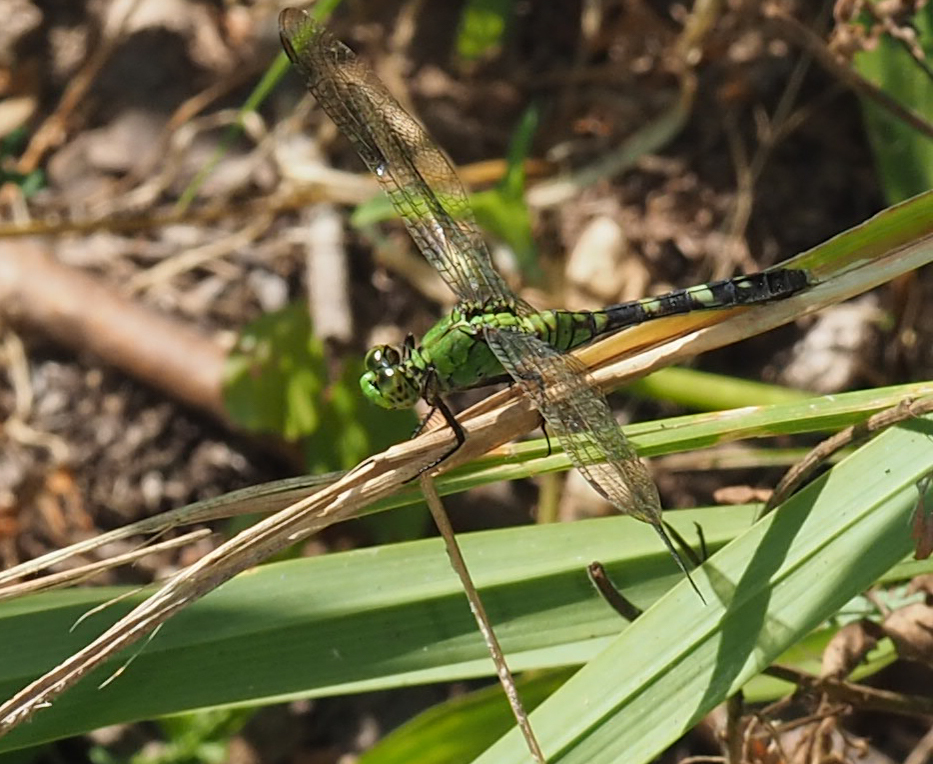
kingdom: Animalia
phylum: Arthropoda
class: Insecta
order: Odonata
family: Libellulidae
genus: Erythemis
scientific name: Erythemis simplicicollis
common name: Eastern pondhawk
